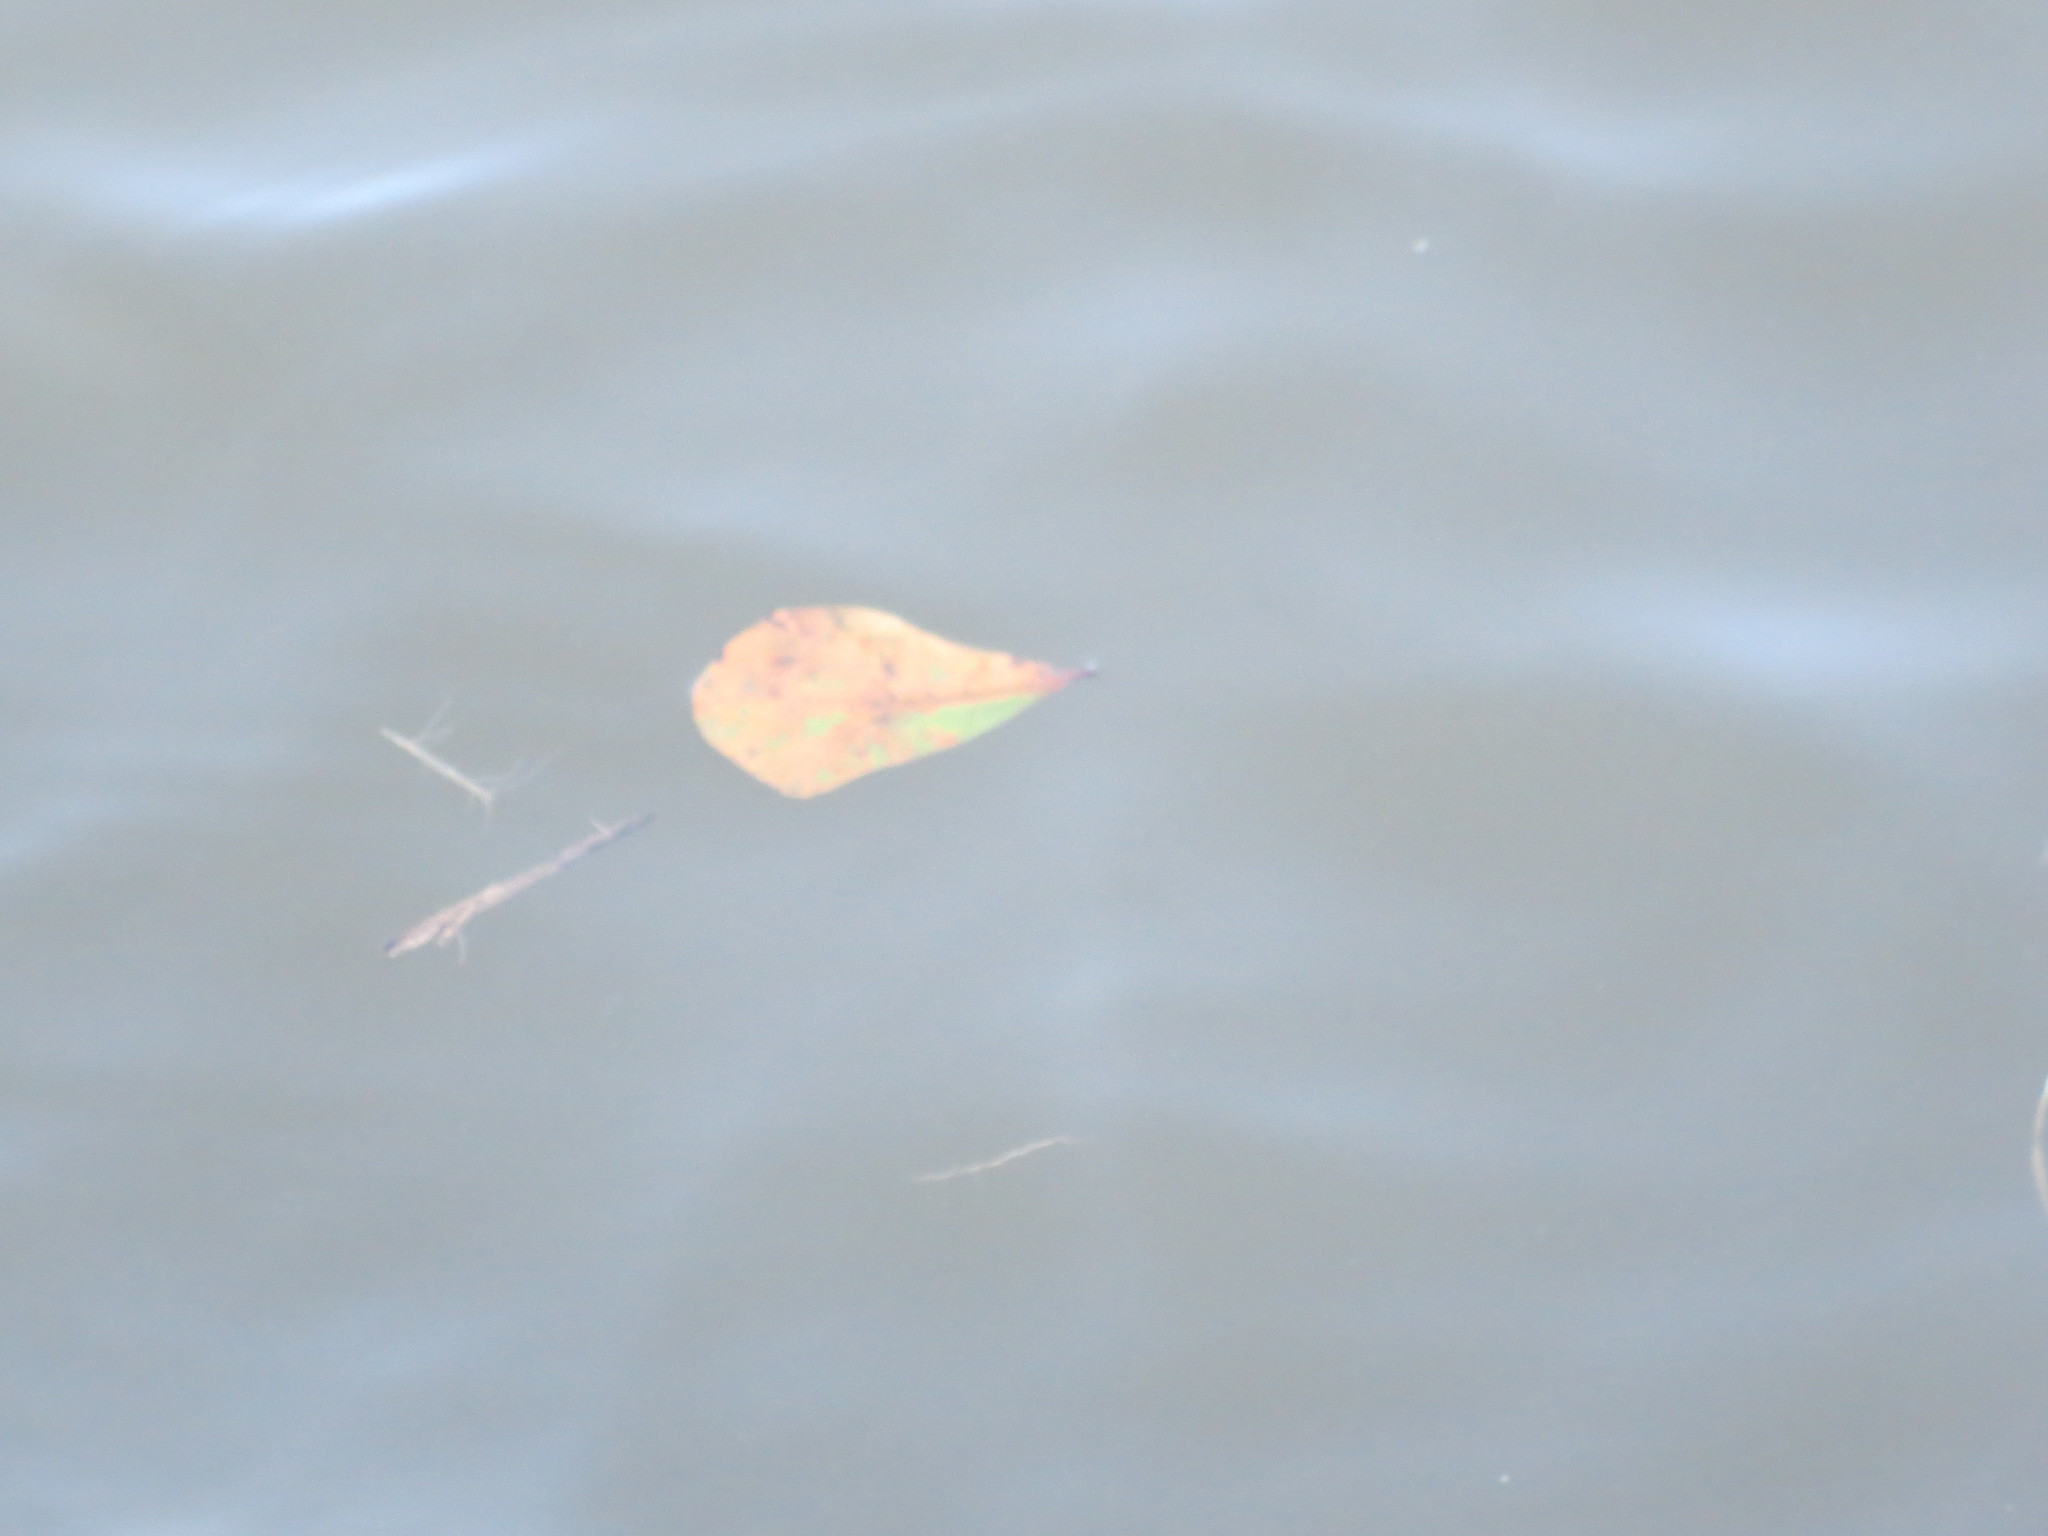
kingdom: Plantae
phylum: Tracheophyta
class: Magnoliopsida
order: Fagales
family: Fagaceae
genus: Quercus
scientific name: Quercus nigra
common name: Water oak
